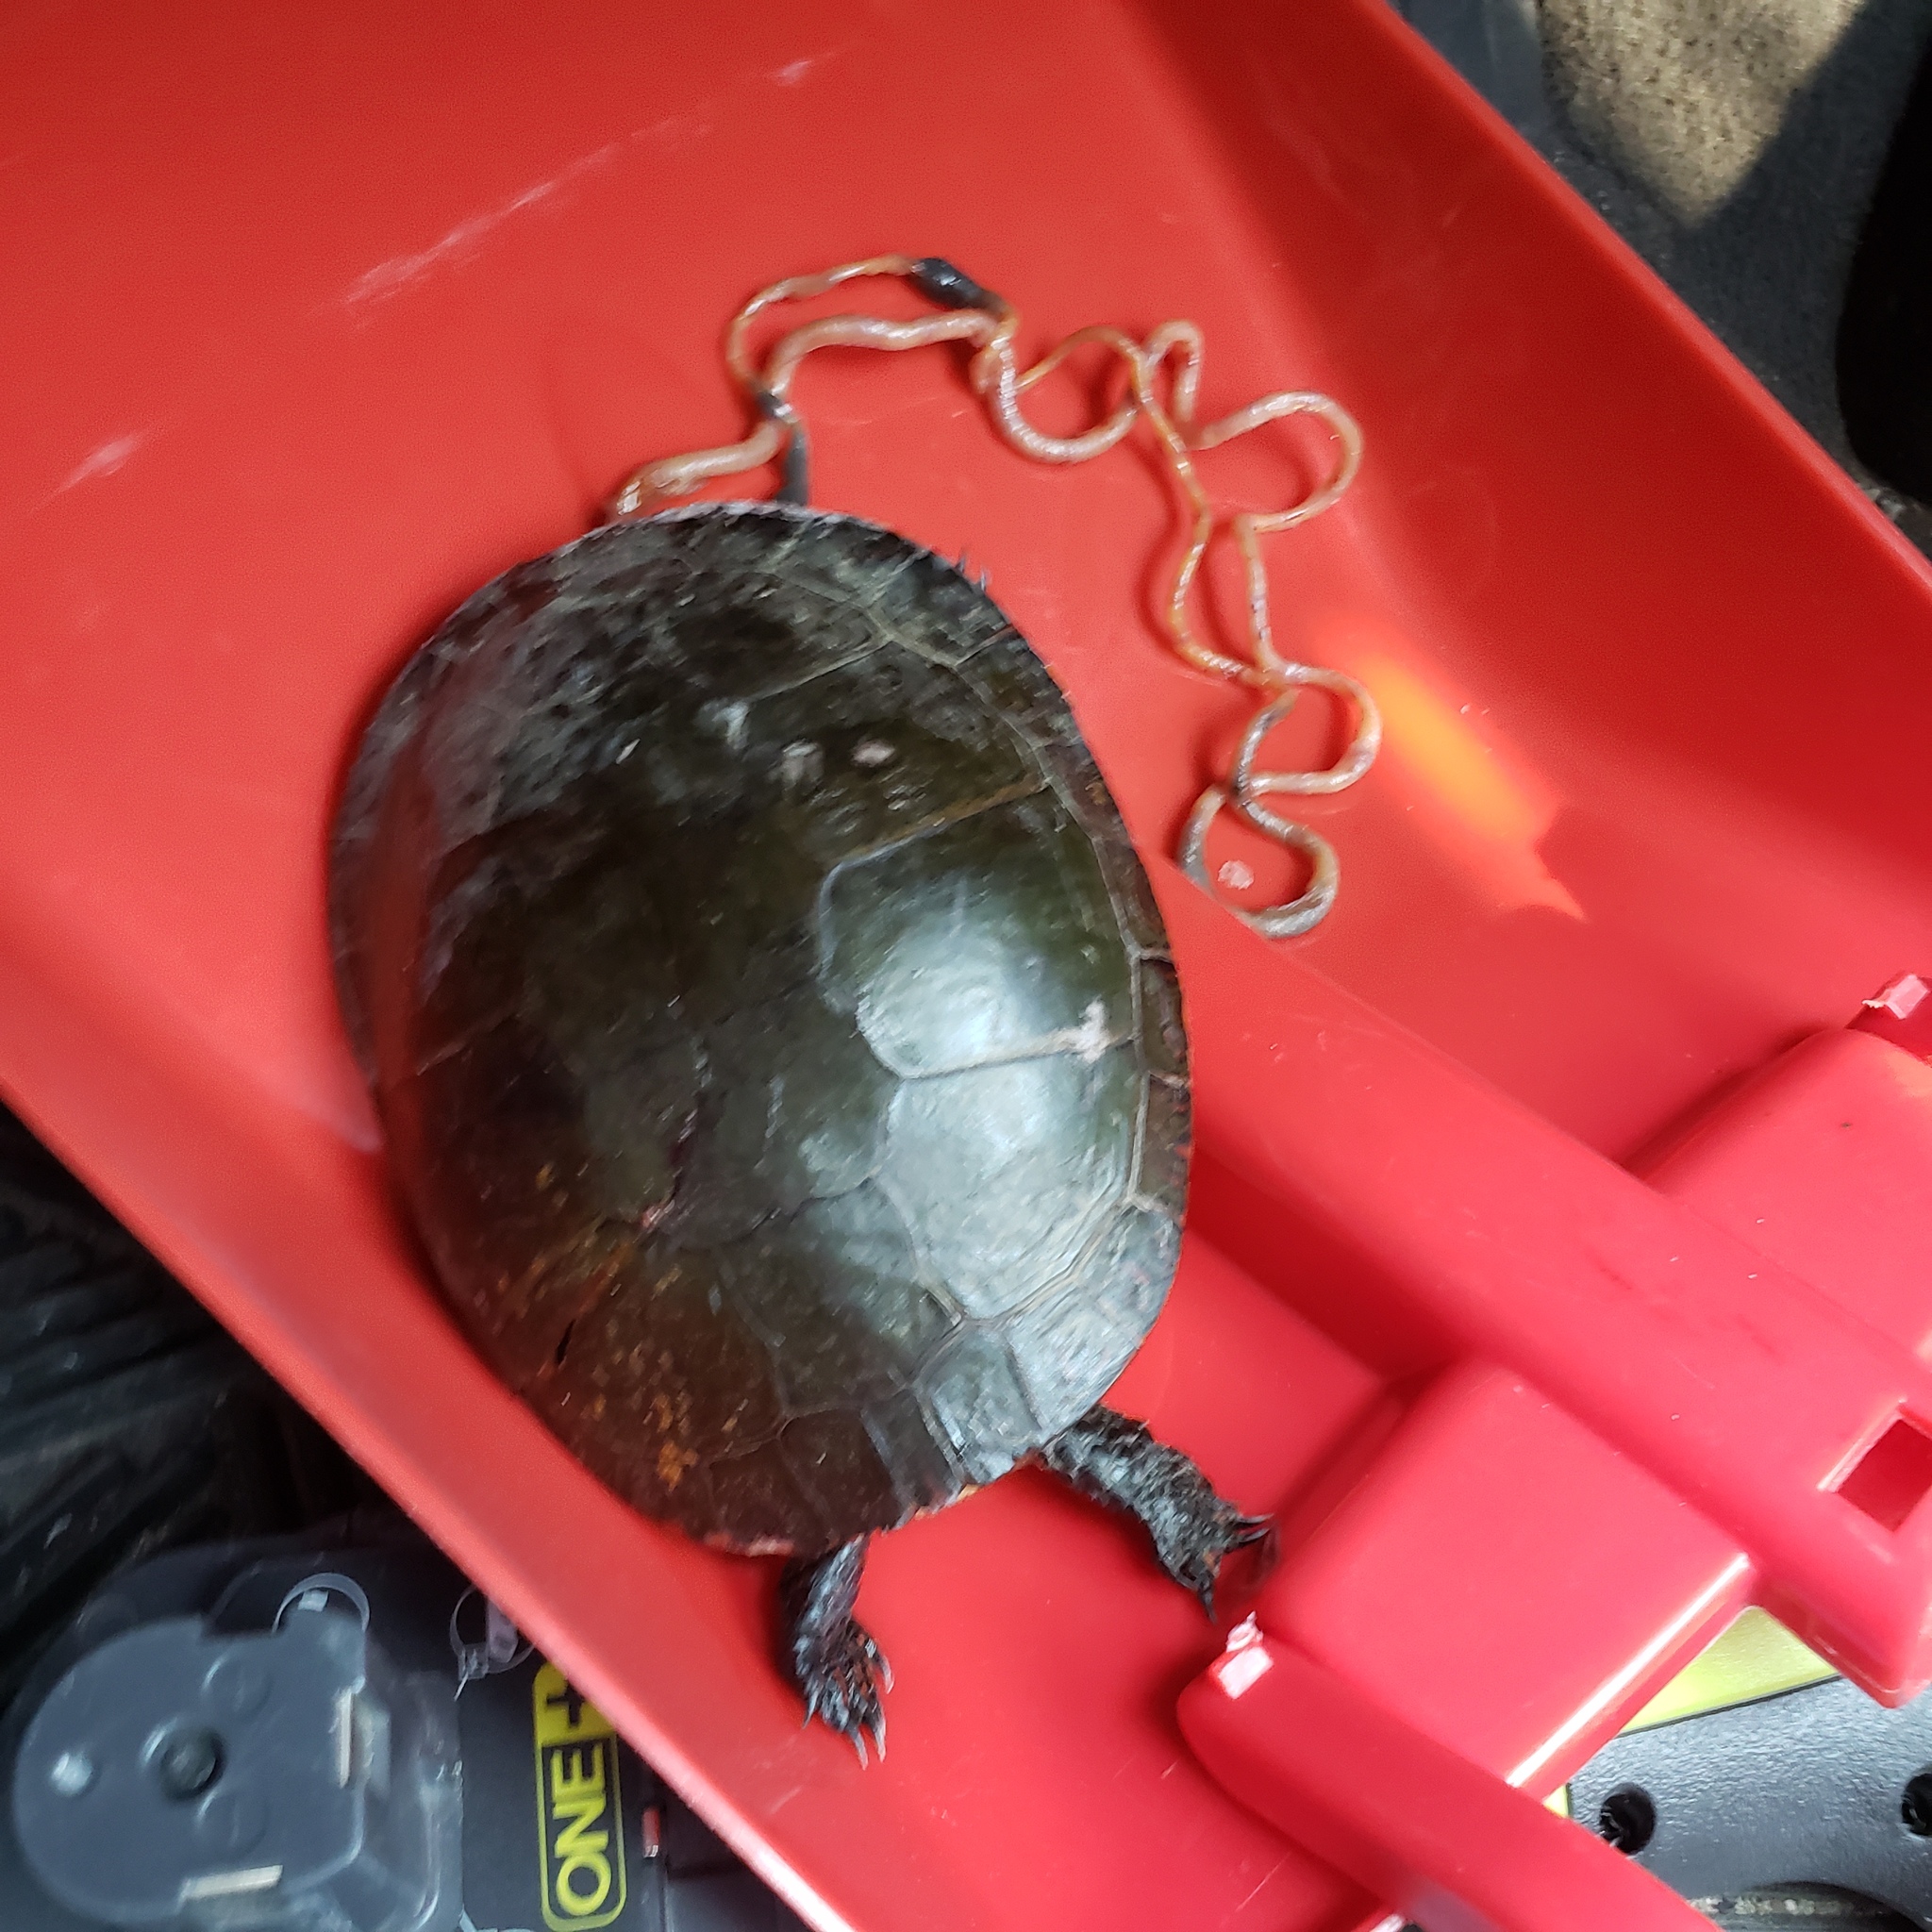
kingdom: Animalia
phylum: Chordata
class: Testudines
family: Emydidae
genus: Chrysemys
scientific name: Chrysemys picta
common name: Painted turtle
